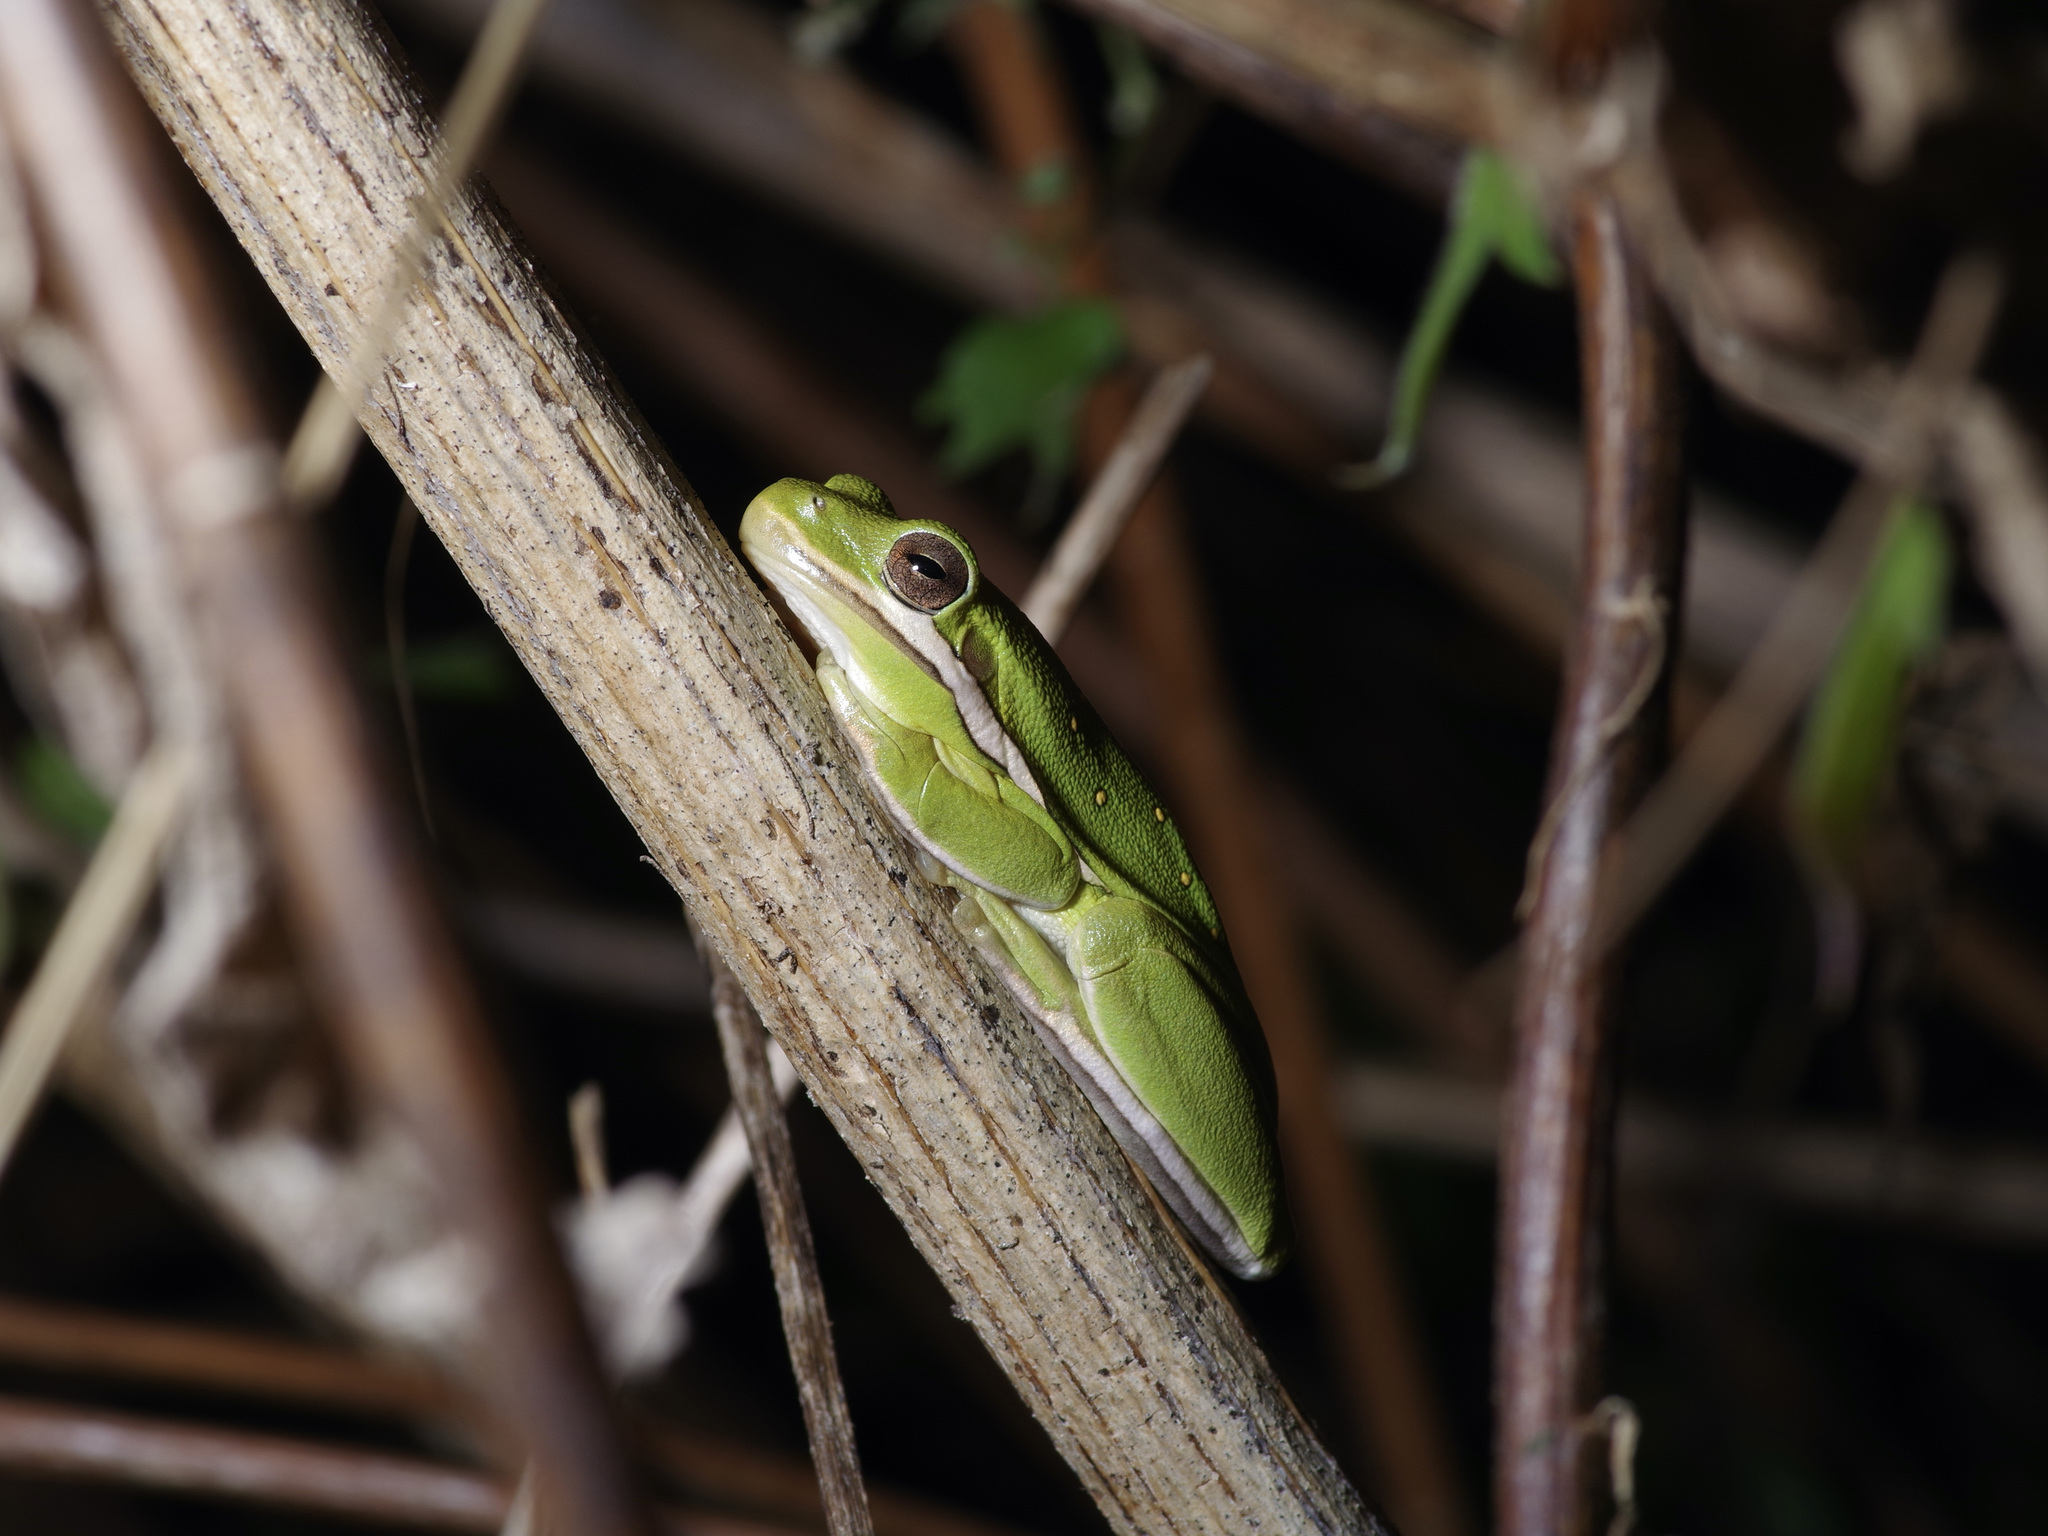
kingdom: Animalia
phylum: Chordata
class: Amphibia
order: Anura
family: Hylidae
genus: Dryophytes
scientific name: Dryophytes cinereus
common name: Green treefrog
